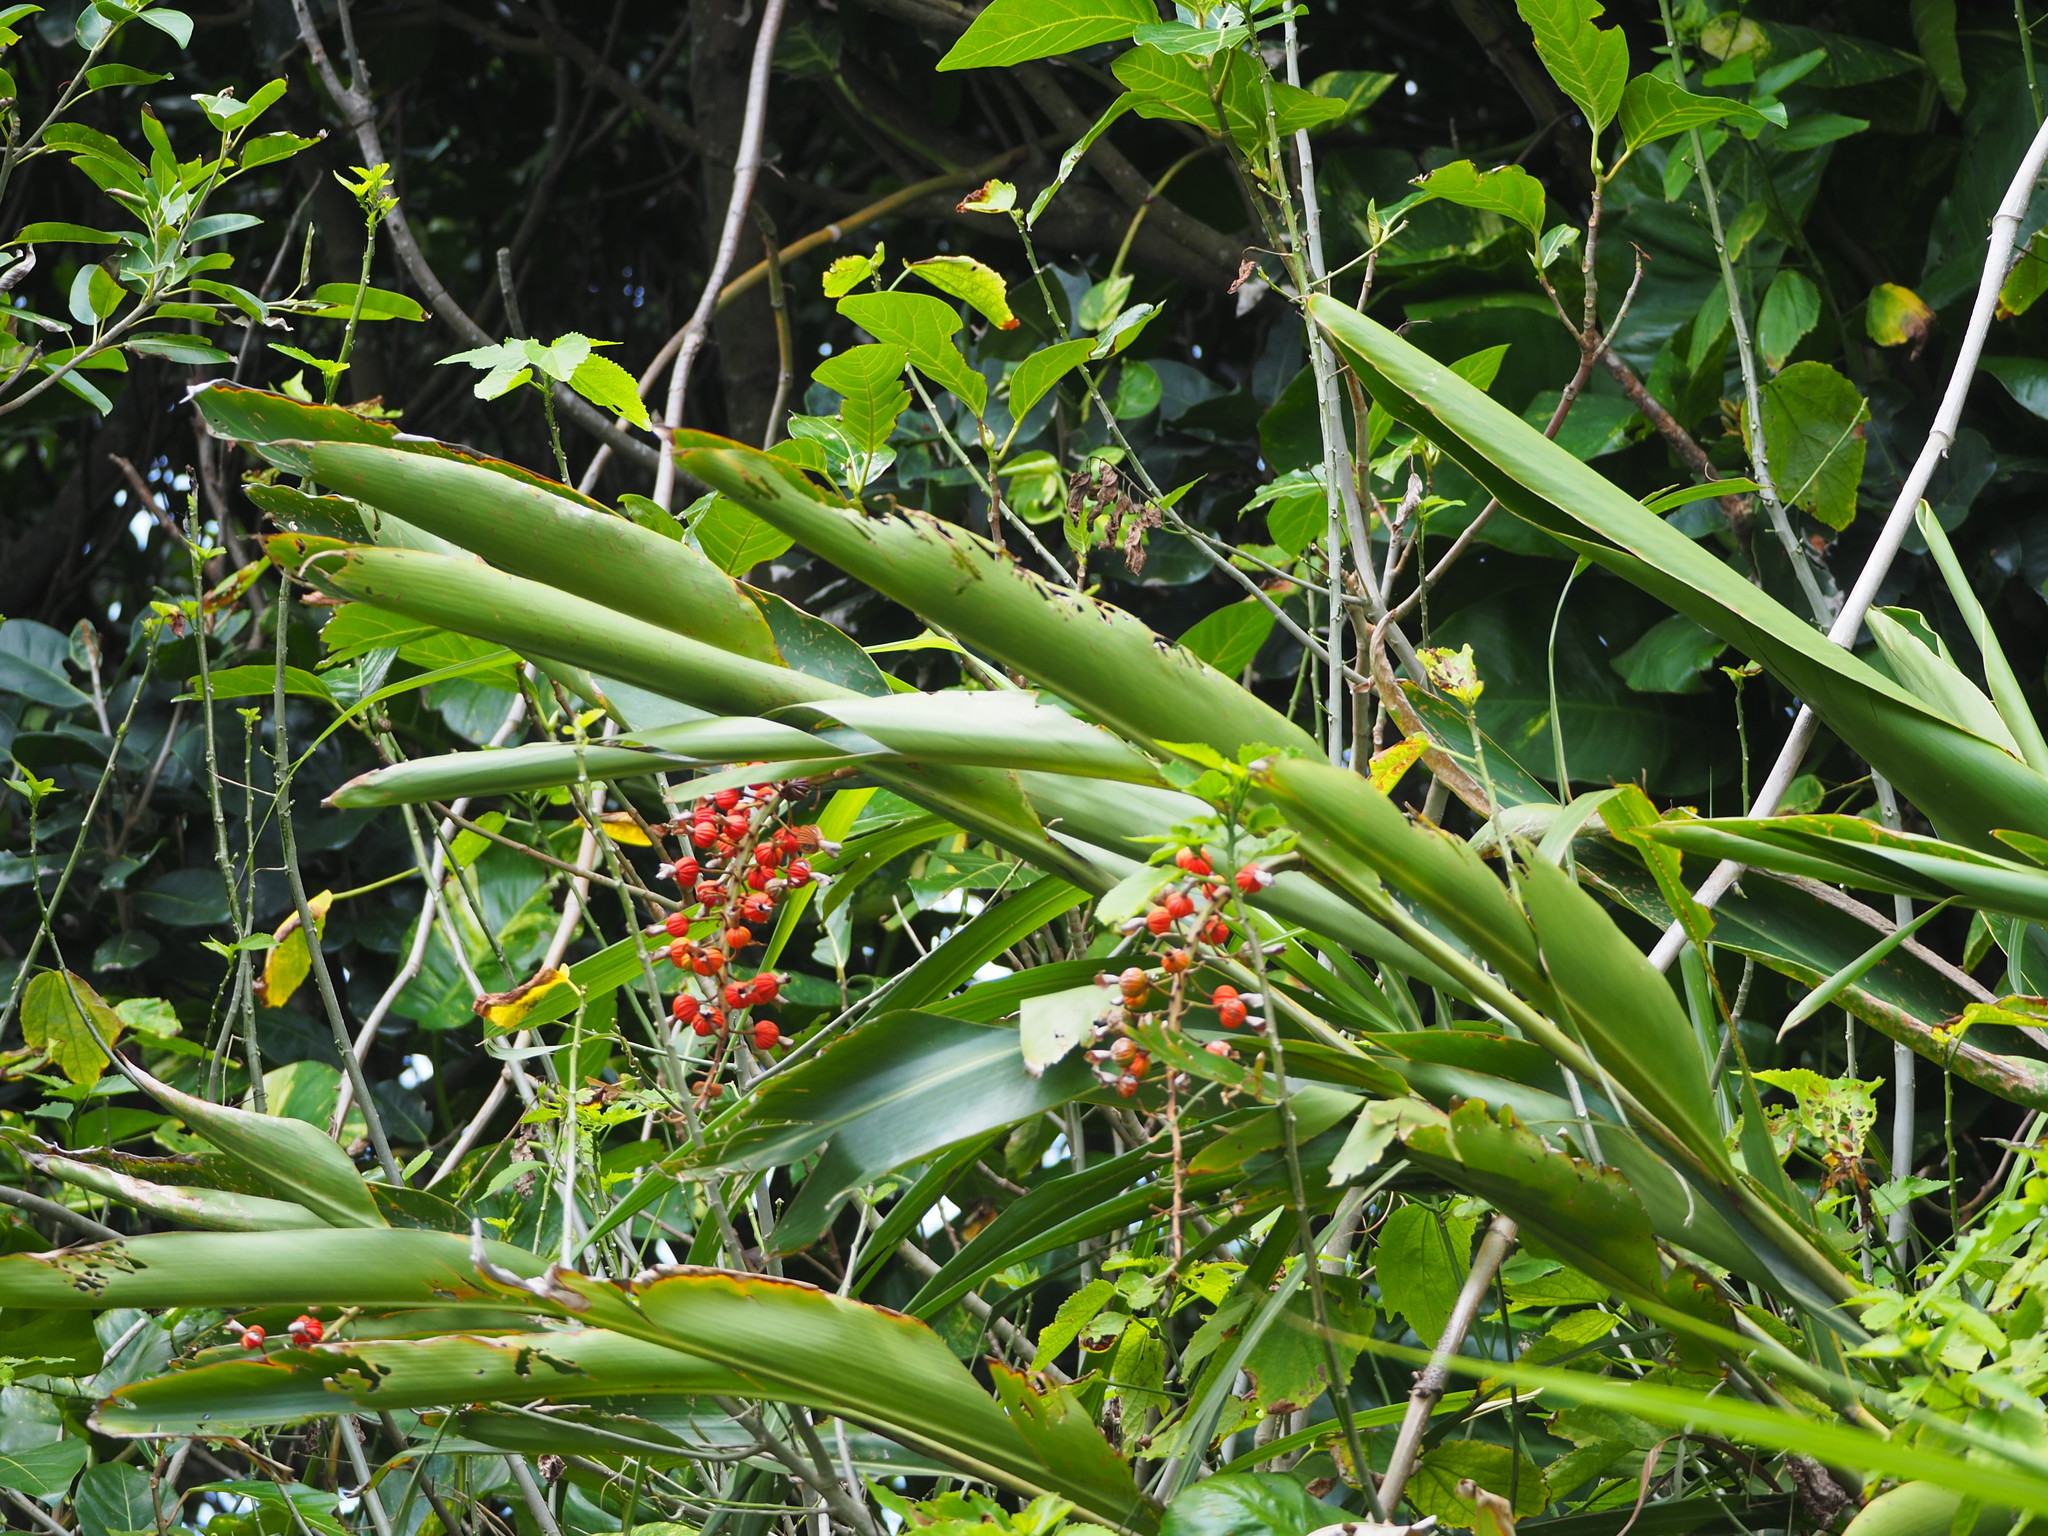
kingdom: Plantae
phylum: Tracheophyta
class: Liliopsida
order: Zingiberales
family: Zingiberaceae
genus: Alpinia
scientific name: Alpinia zerumbet
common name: Shellplant
